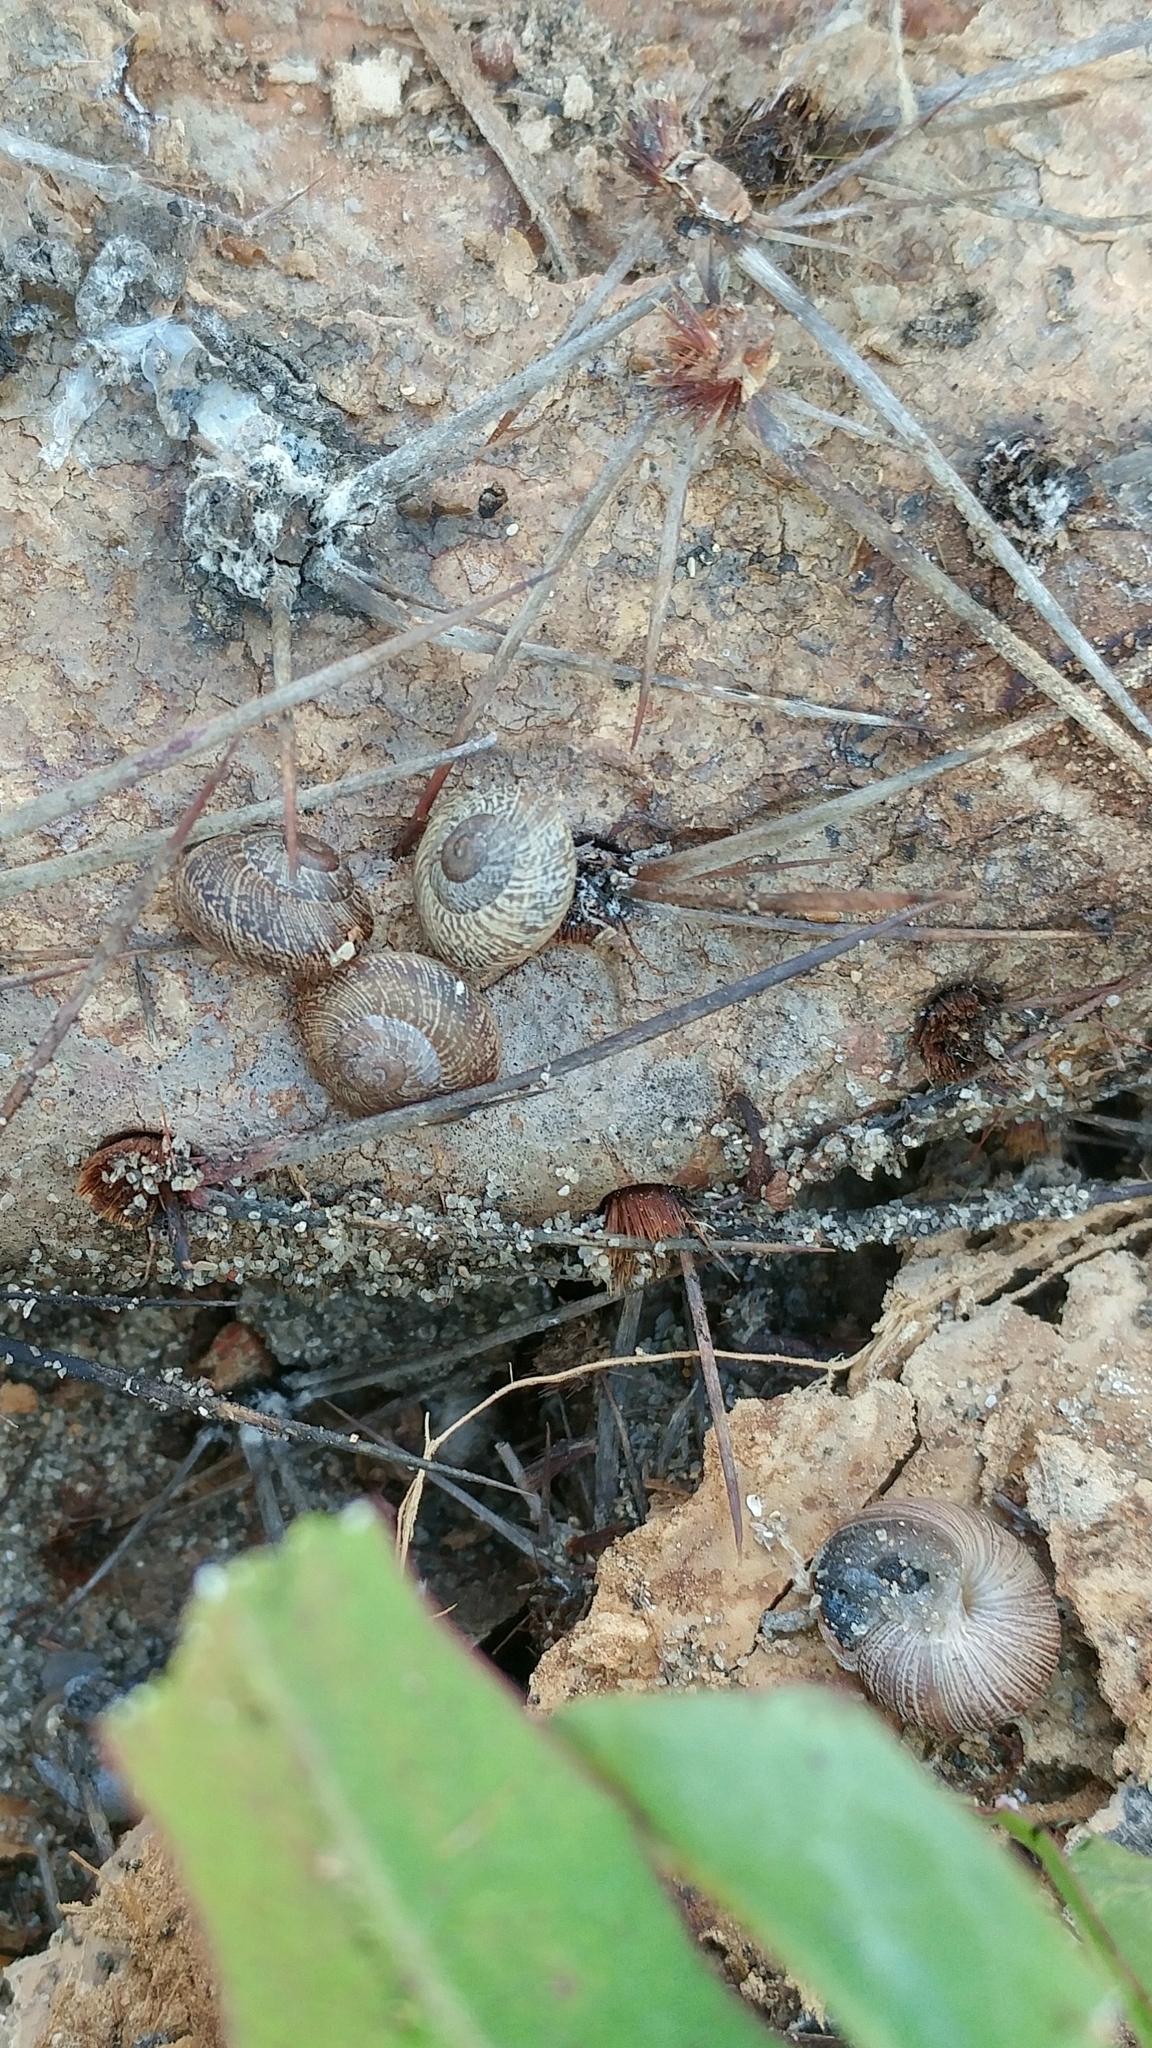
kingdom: Animalia
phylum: Mollusca
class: Gastropoda
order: Stylommatophora
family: Xanthonychidae
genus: Xerarionta
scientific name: Xerarionta intercisa
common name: Plain cactus snail
